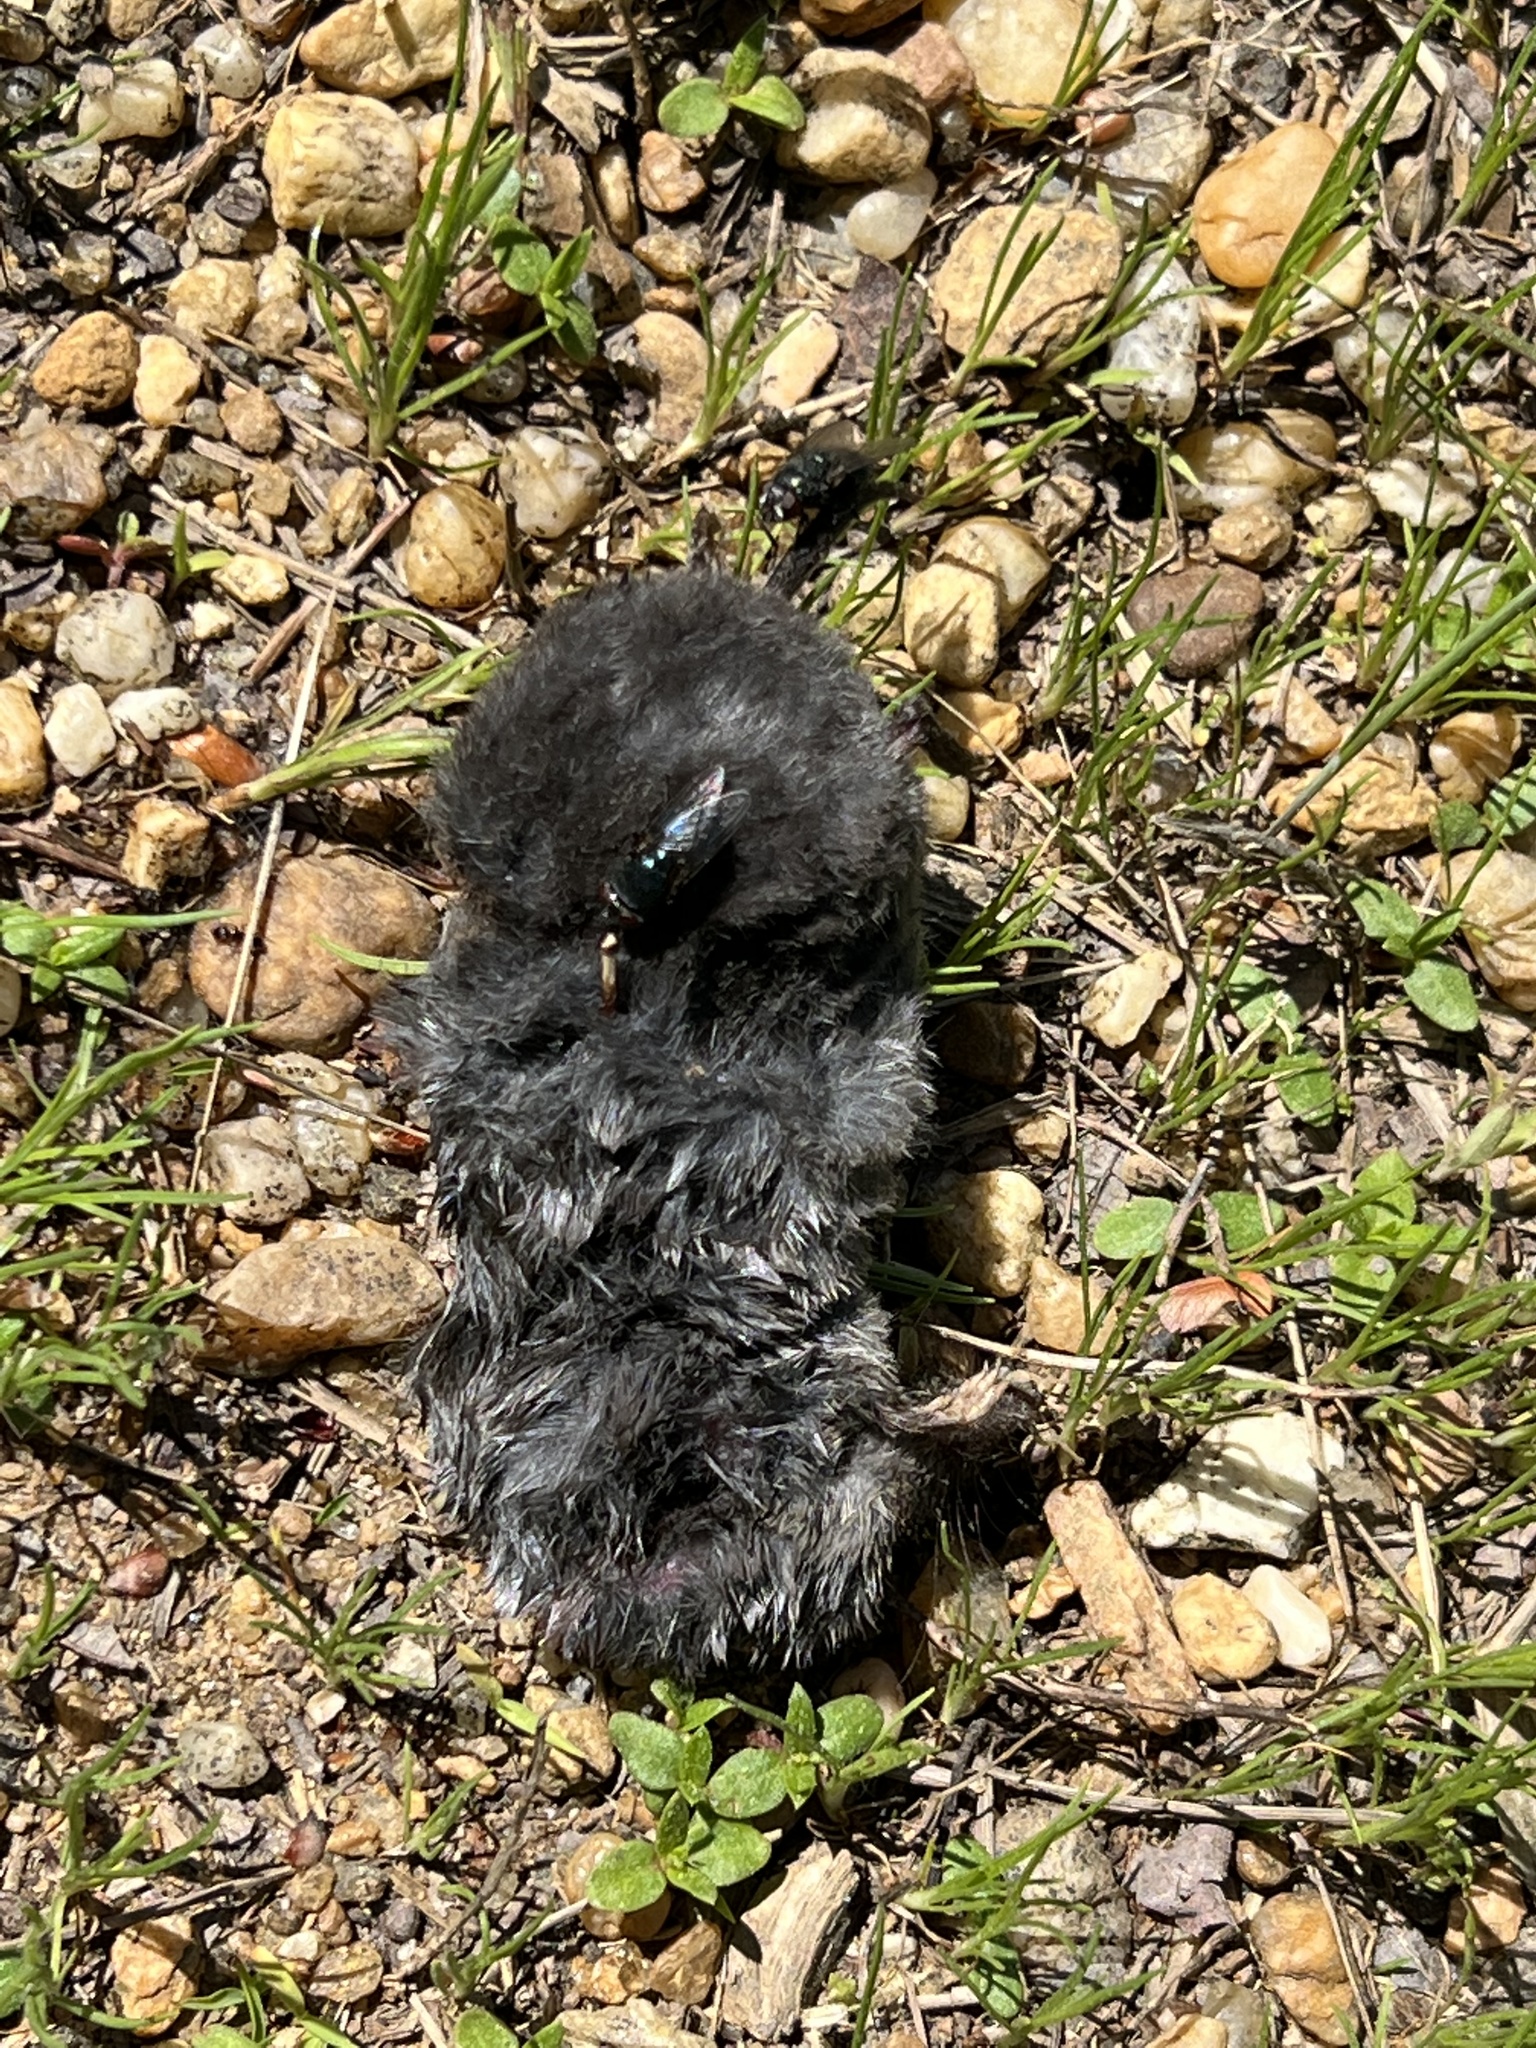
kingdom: Animalia
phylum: Chordata
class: Mammalia
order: Soricomorpha
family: Soricidae
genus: Blarina
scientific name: Blarina brevicauda
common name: Northern short-tailed shrew
